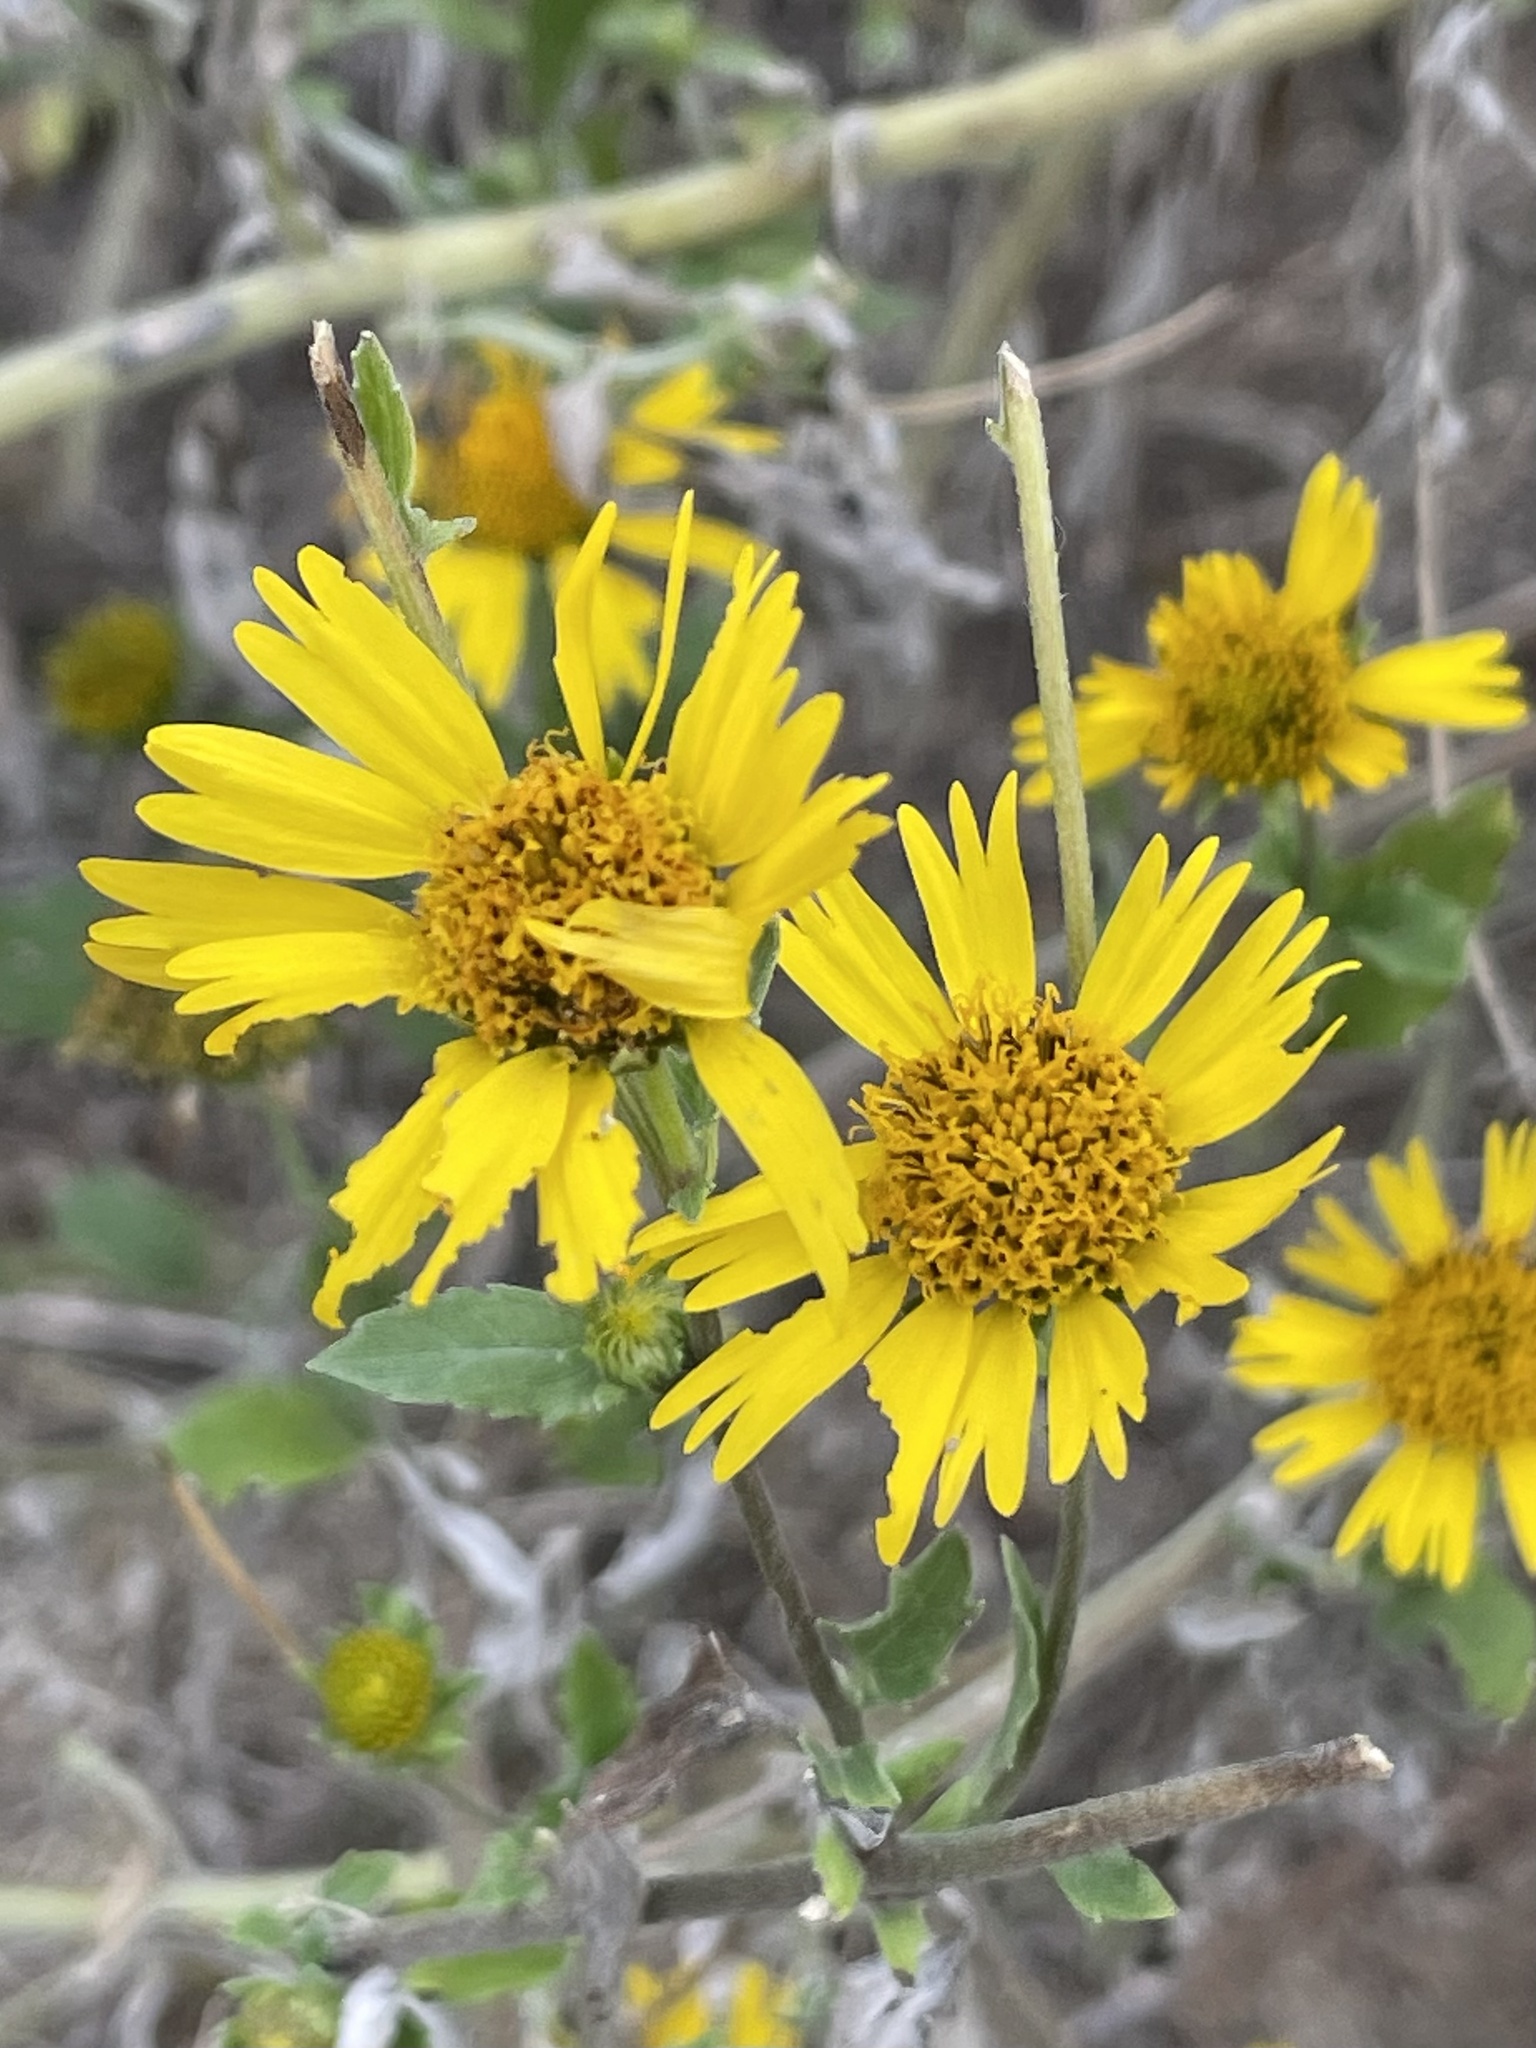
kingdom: Plantae
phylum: Tracheophyta
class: Magnoliopsida
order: Asterales
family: Asteraceae
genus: Verbesina
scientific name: Verbesina encelioides
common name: Golden crownbeard
